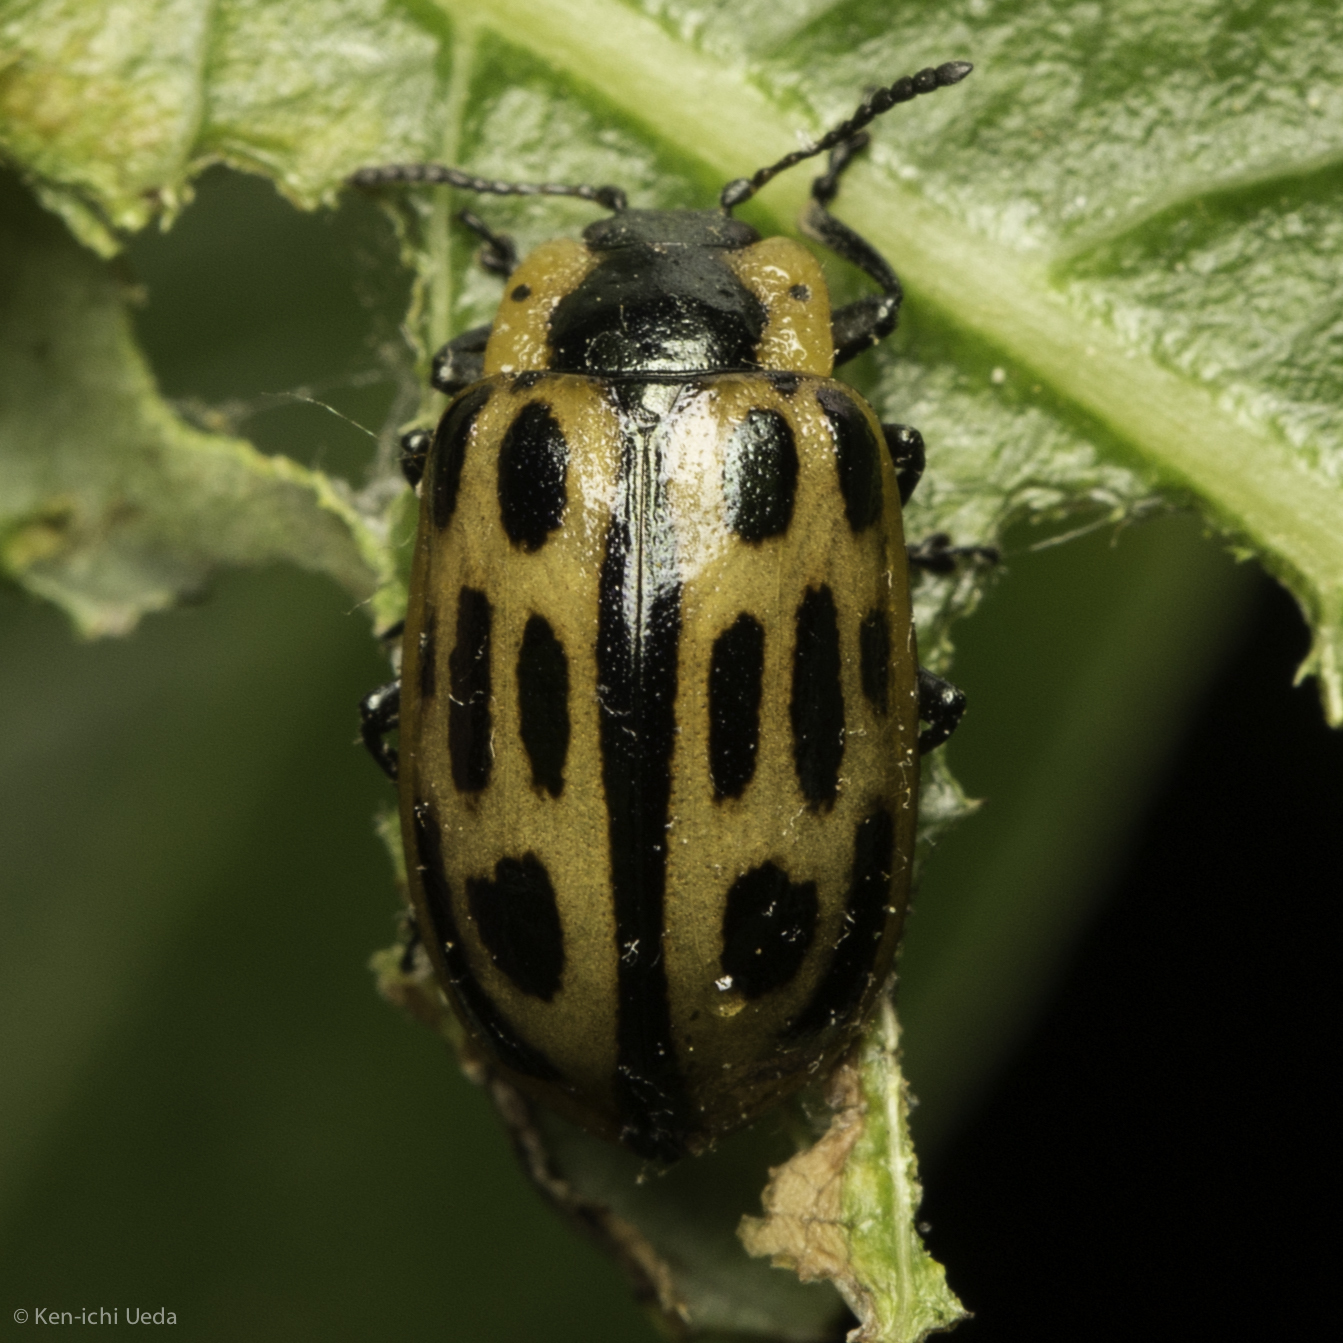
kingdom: Animalia
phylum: Arthropoda
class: Insecta
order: Coleoptera
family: Chrysomelidae
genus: Chrysomela
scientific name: Chrysomela confluens
